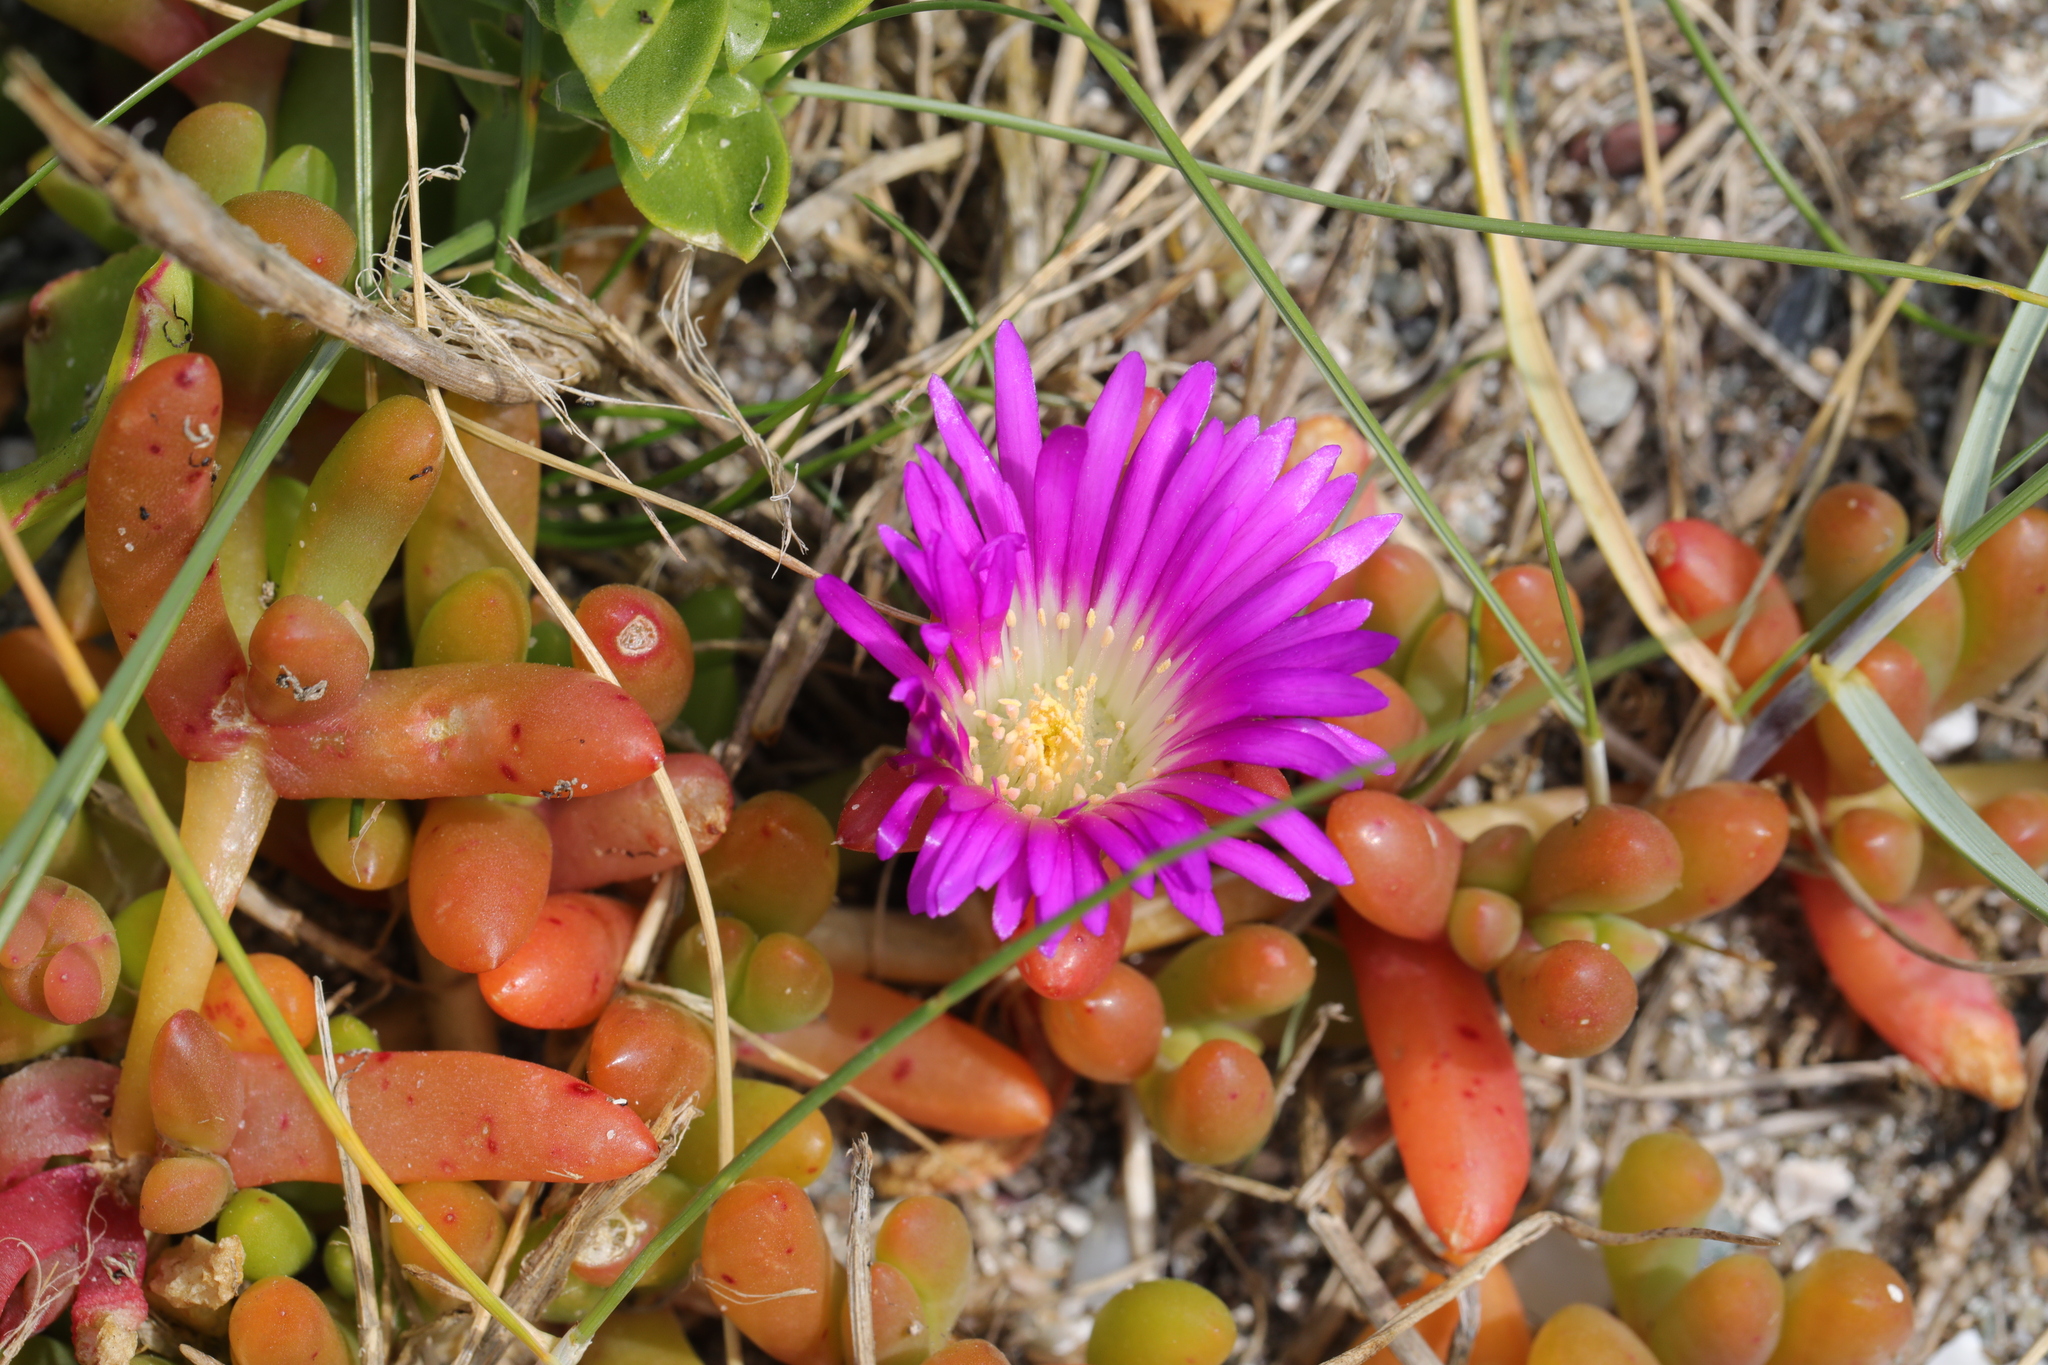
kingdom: Plantae
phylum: Tracheophyta
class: Magnoliopsida
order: Caryophyllales
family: Aizoaceae
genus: Disphyma
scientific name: Disphyma crassifolium
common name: Purple dewplant
